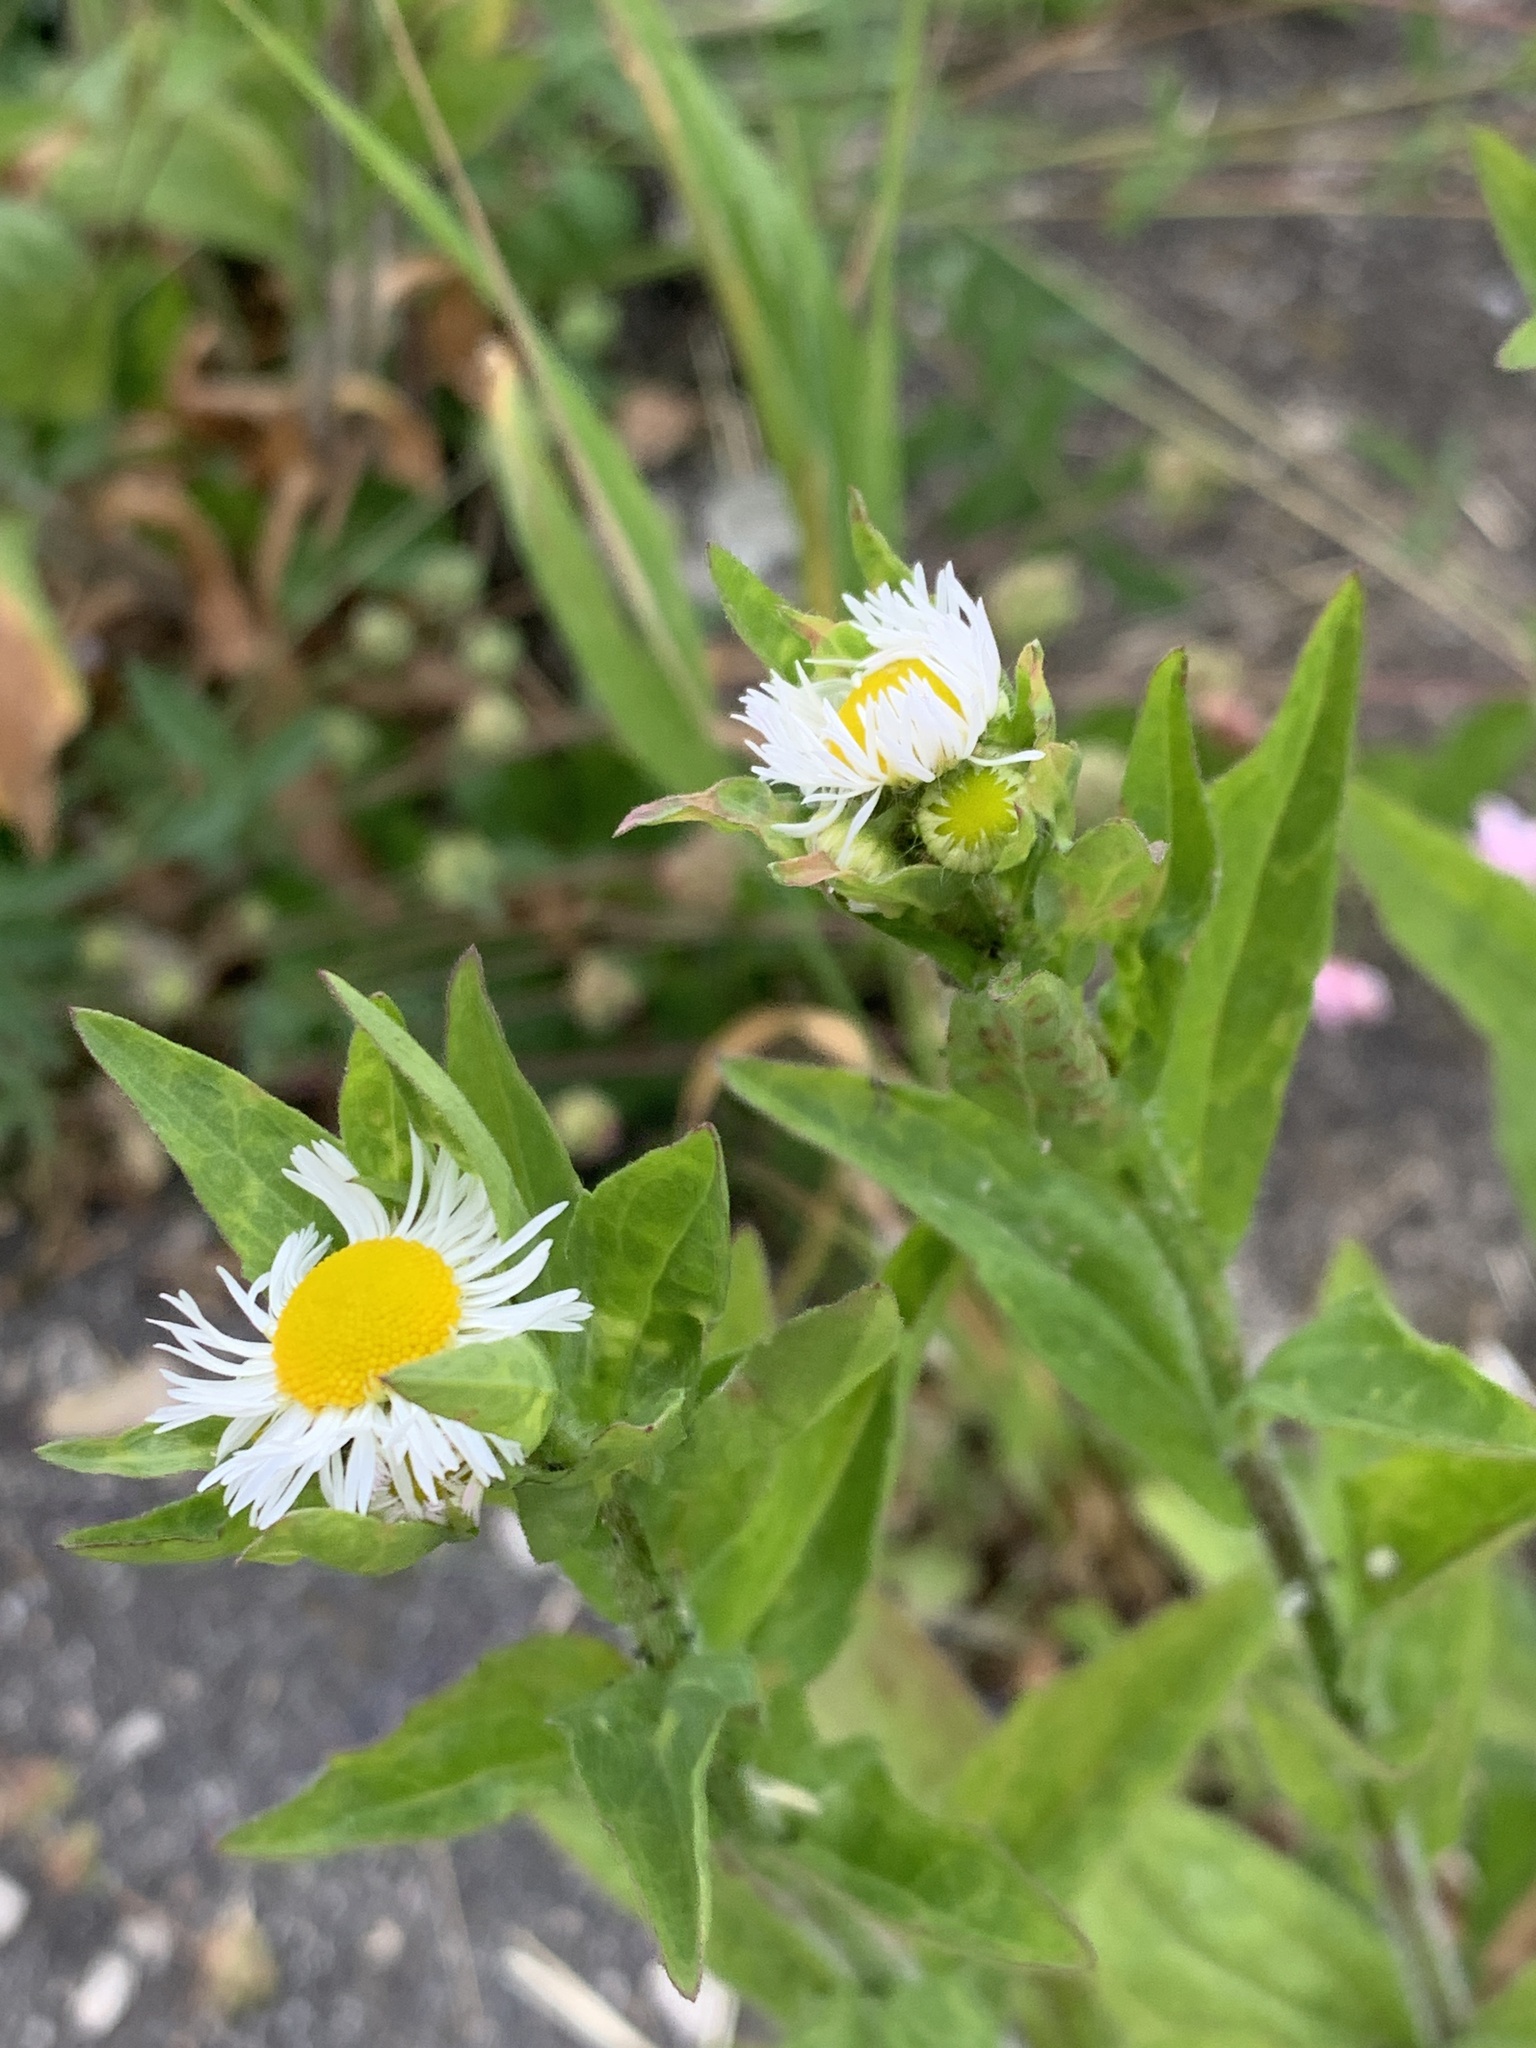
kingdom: Plantae
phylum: Tracheophyta
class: Magnoliopsida
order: Asterales
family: Asteraceae
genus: Erigeron
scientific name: Erigeron annuus
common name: Tall fleabane
